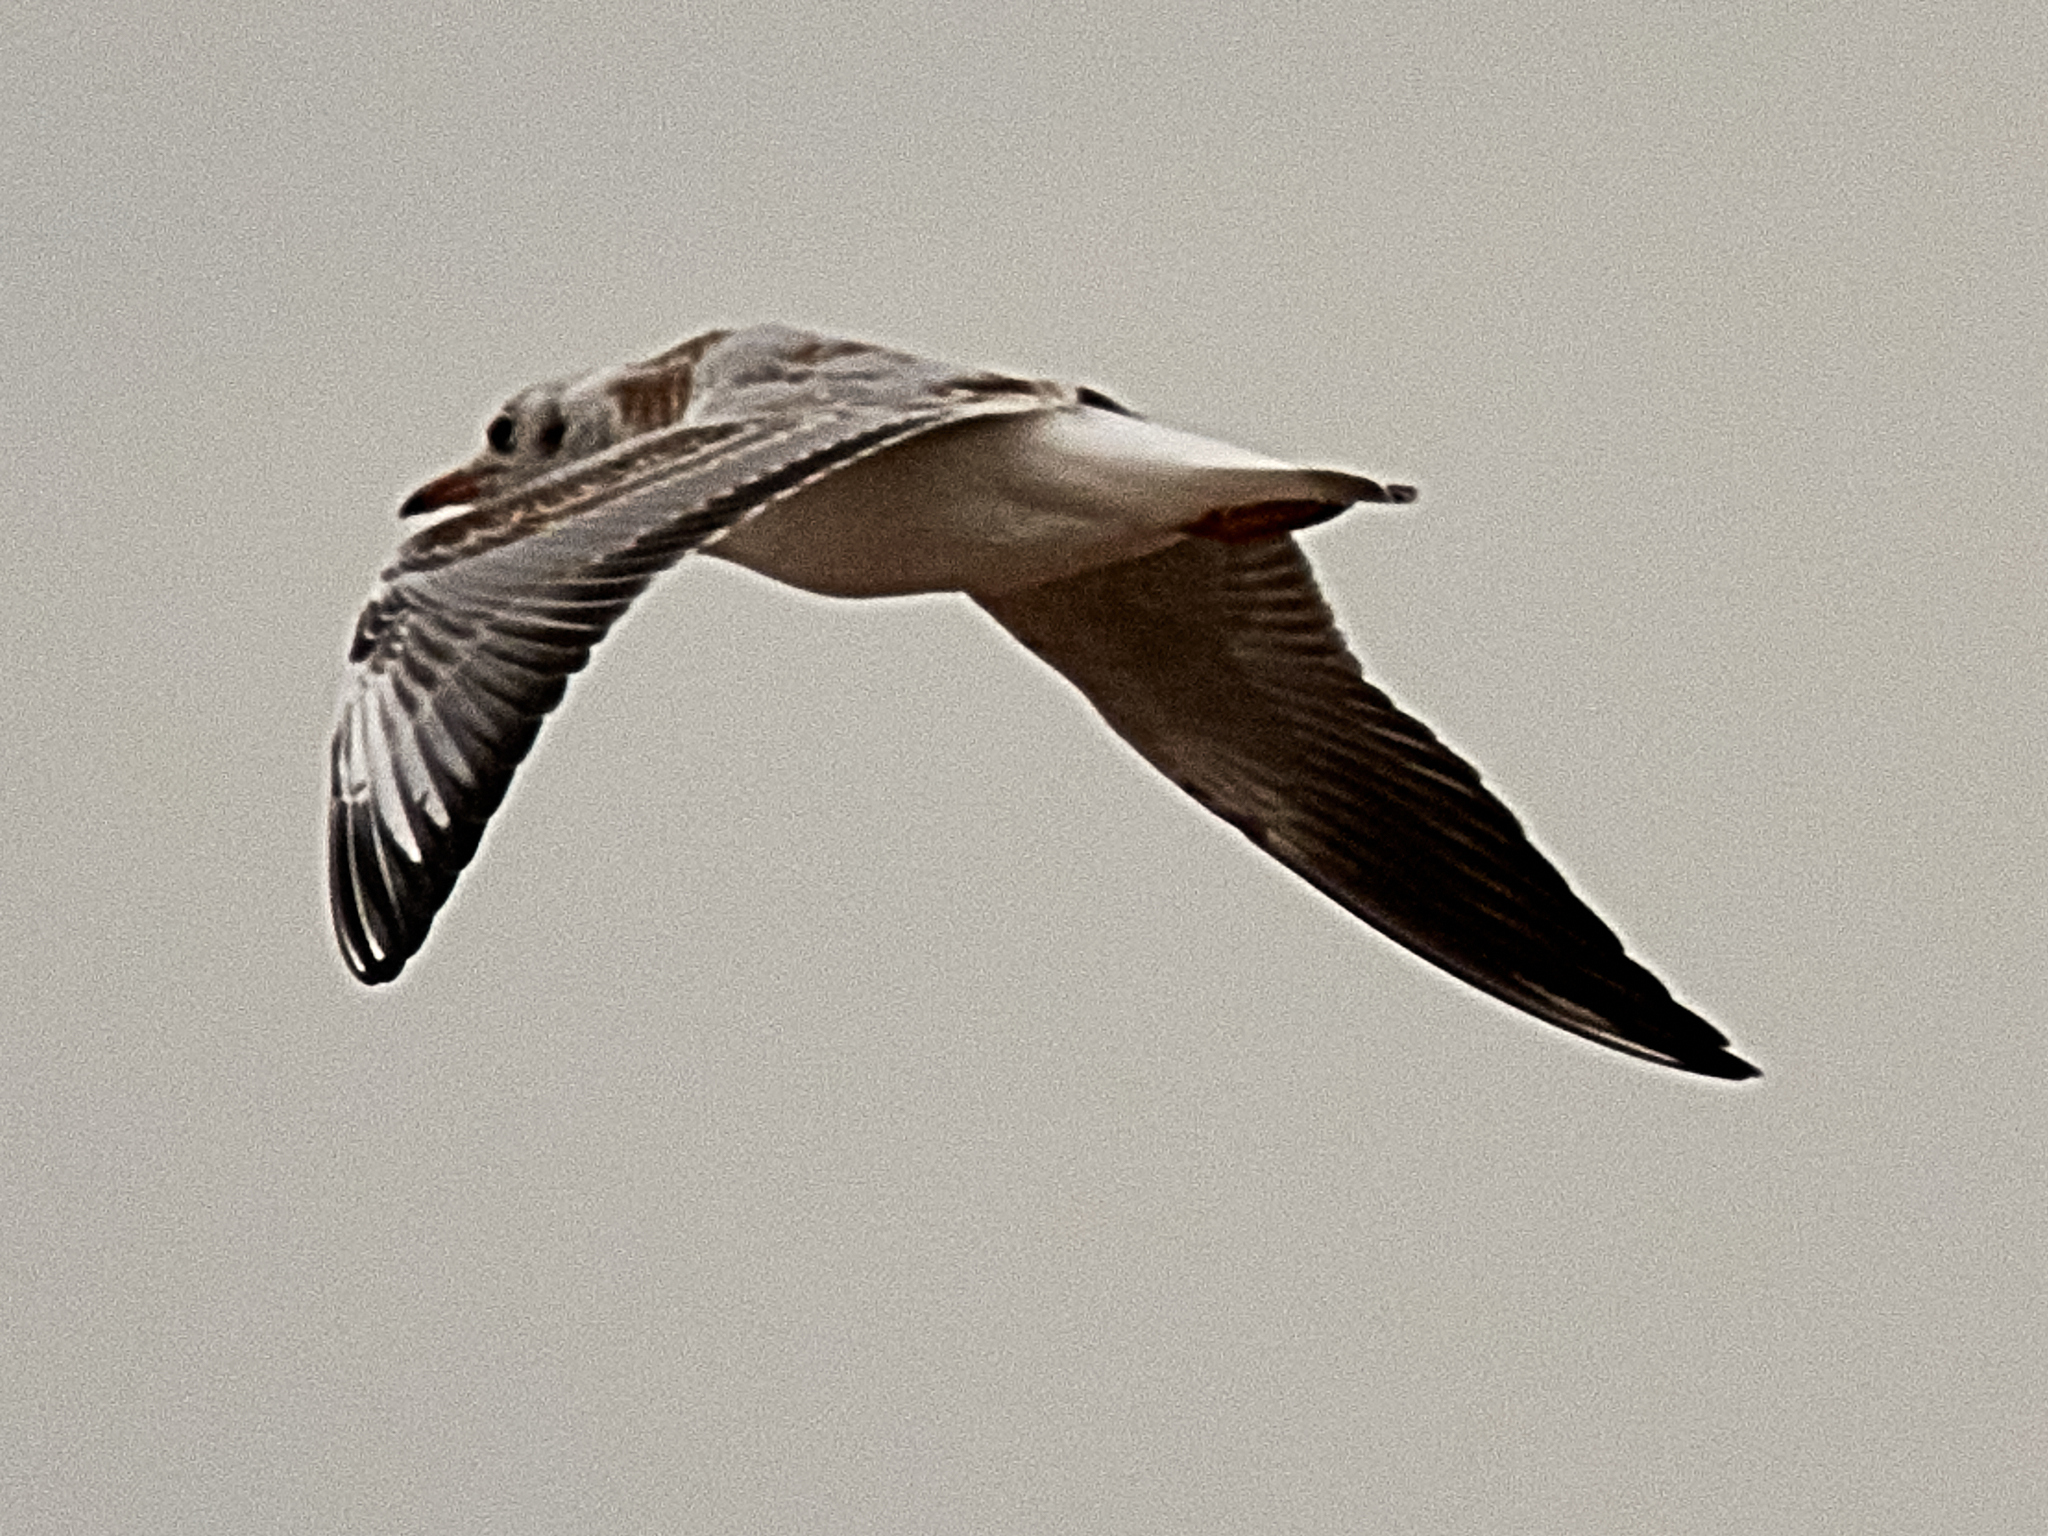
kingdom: Animalia
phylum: Chordata
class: Aves
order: Charadriiformes
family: Laridae
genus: Chroicocephalus
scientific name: Chroicocephalus ridibundus
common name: Black-headed gull
